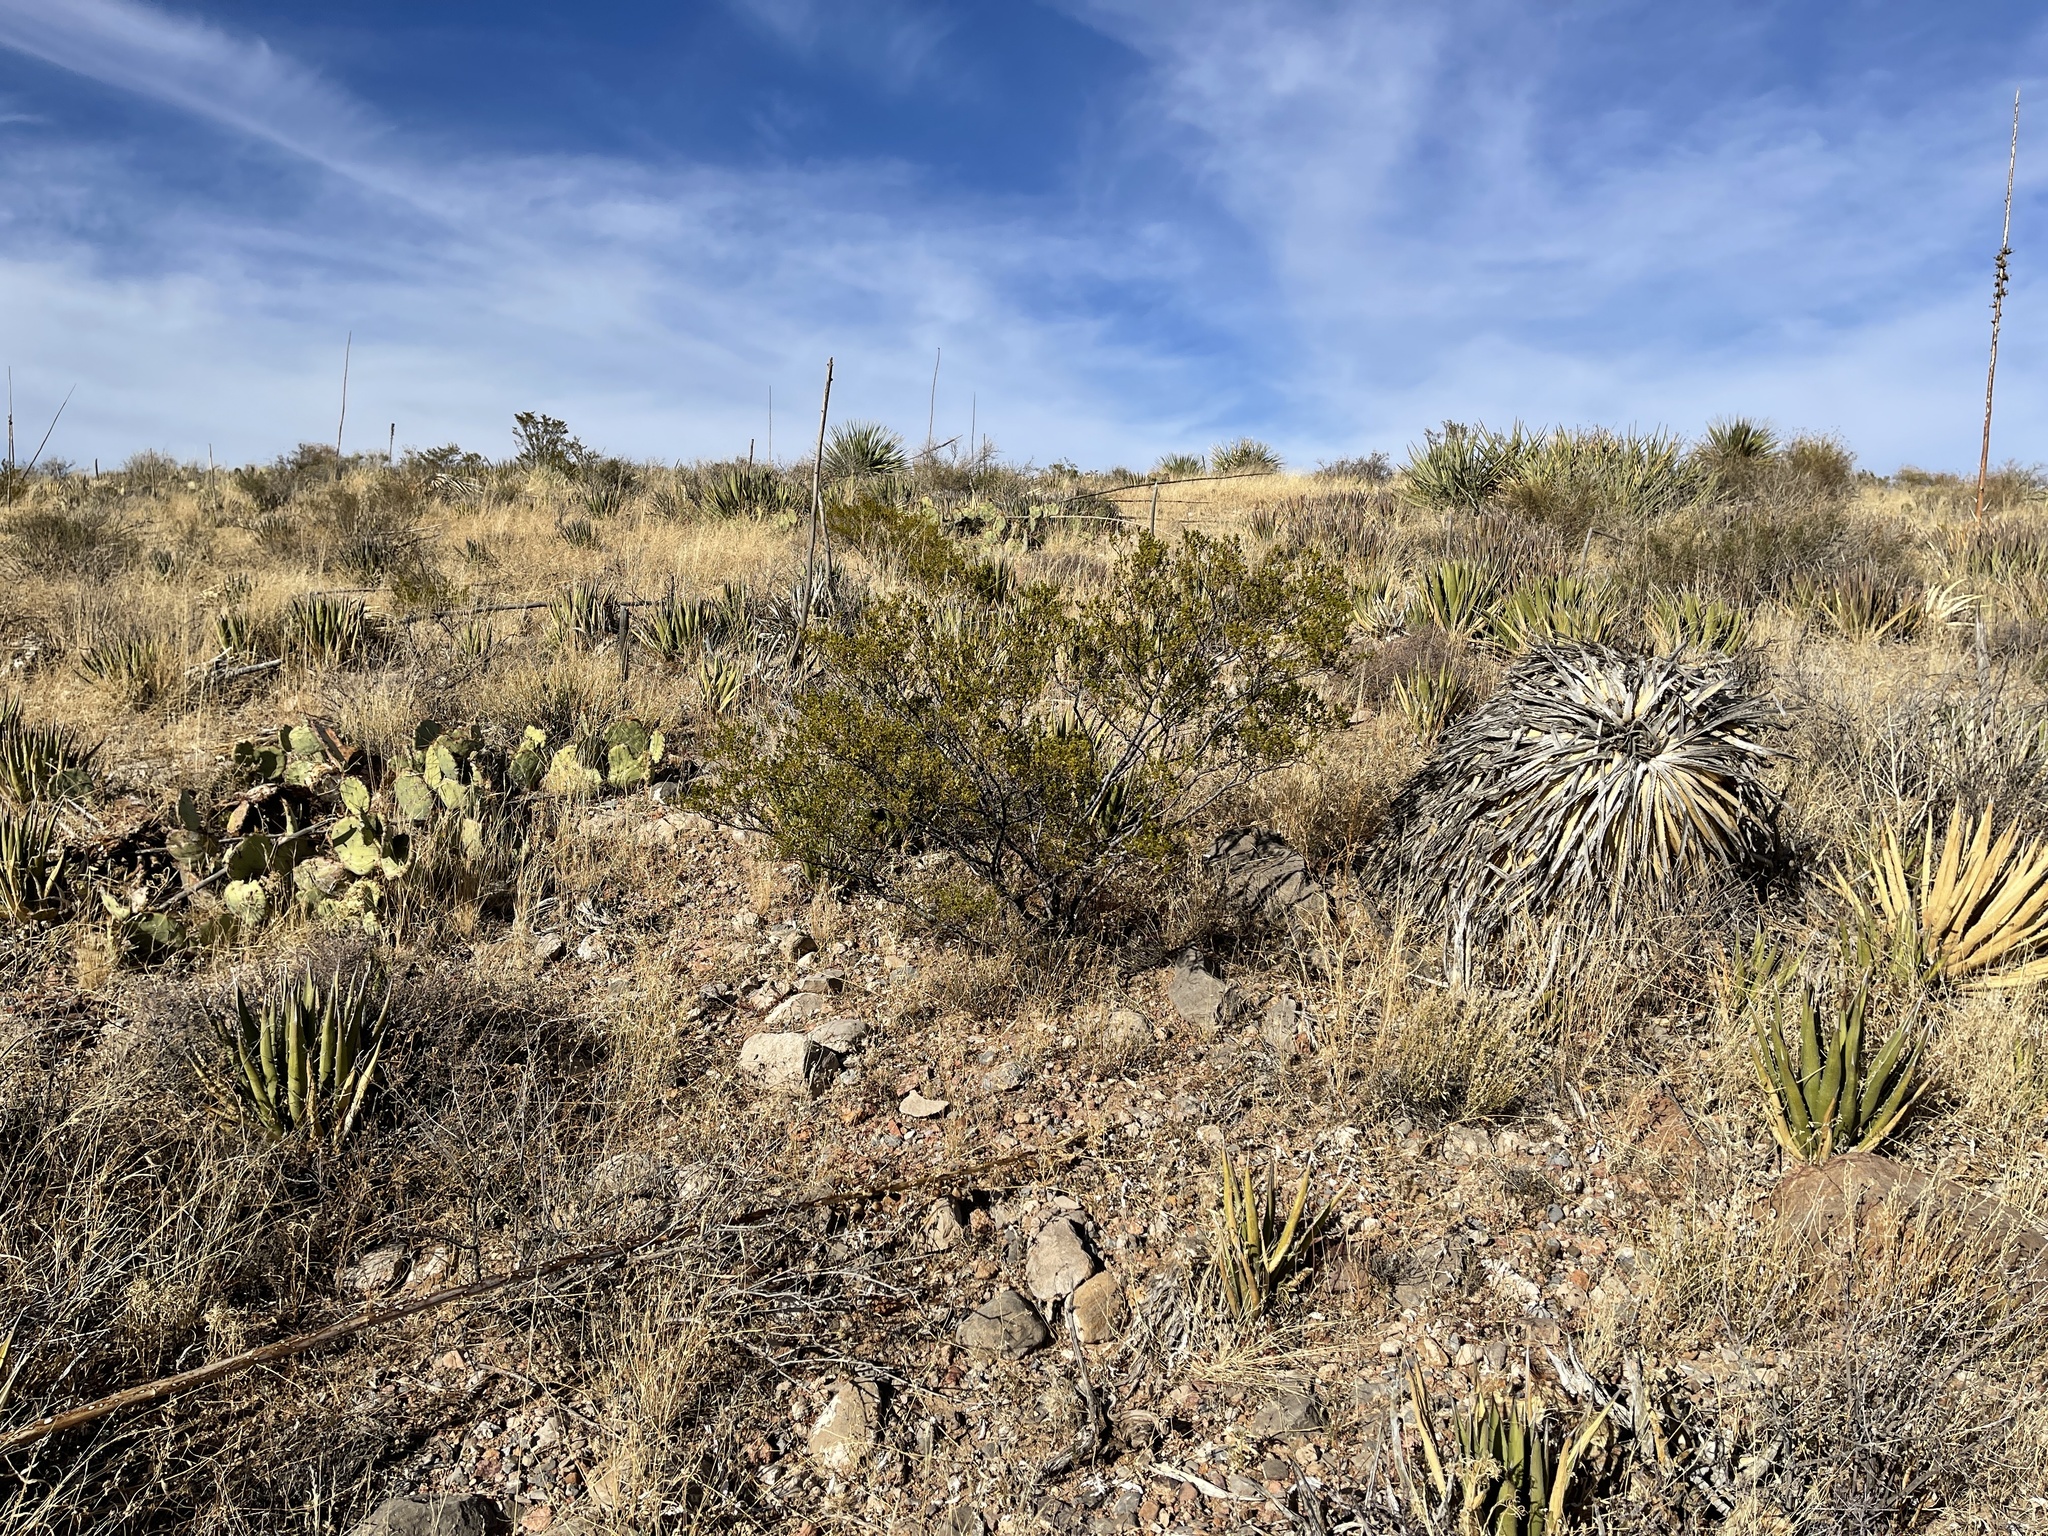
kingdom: Plantae
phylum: Tracheophyta
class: Magnoliopsida
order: Zygophyllales
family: Zygophyllaceae
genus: Larrea
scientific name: Larrea tridentata
